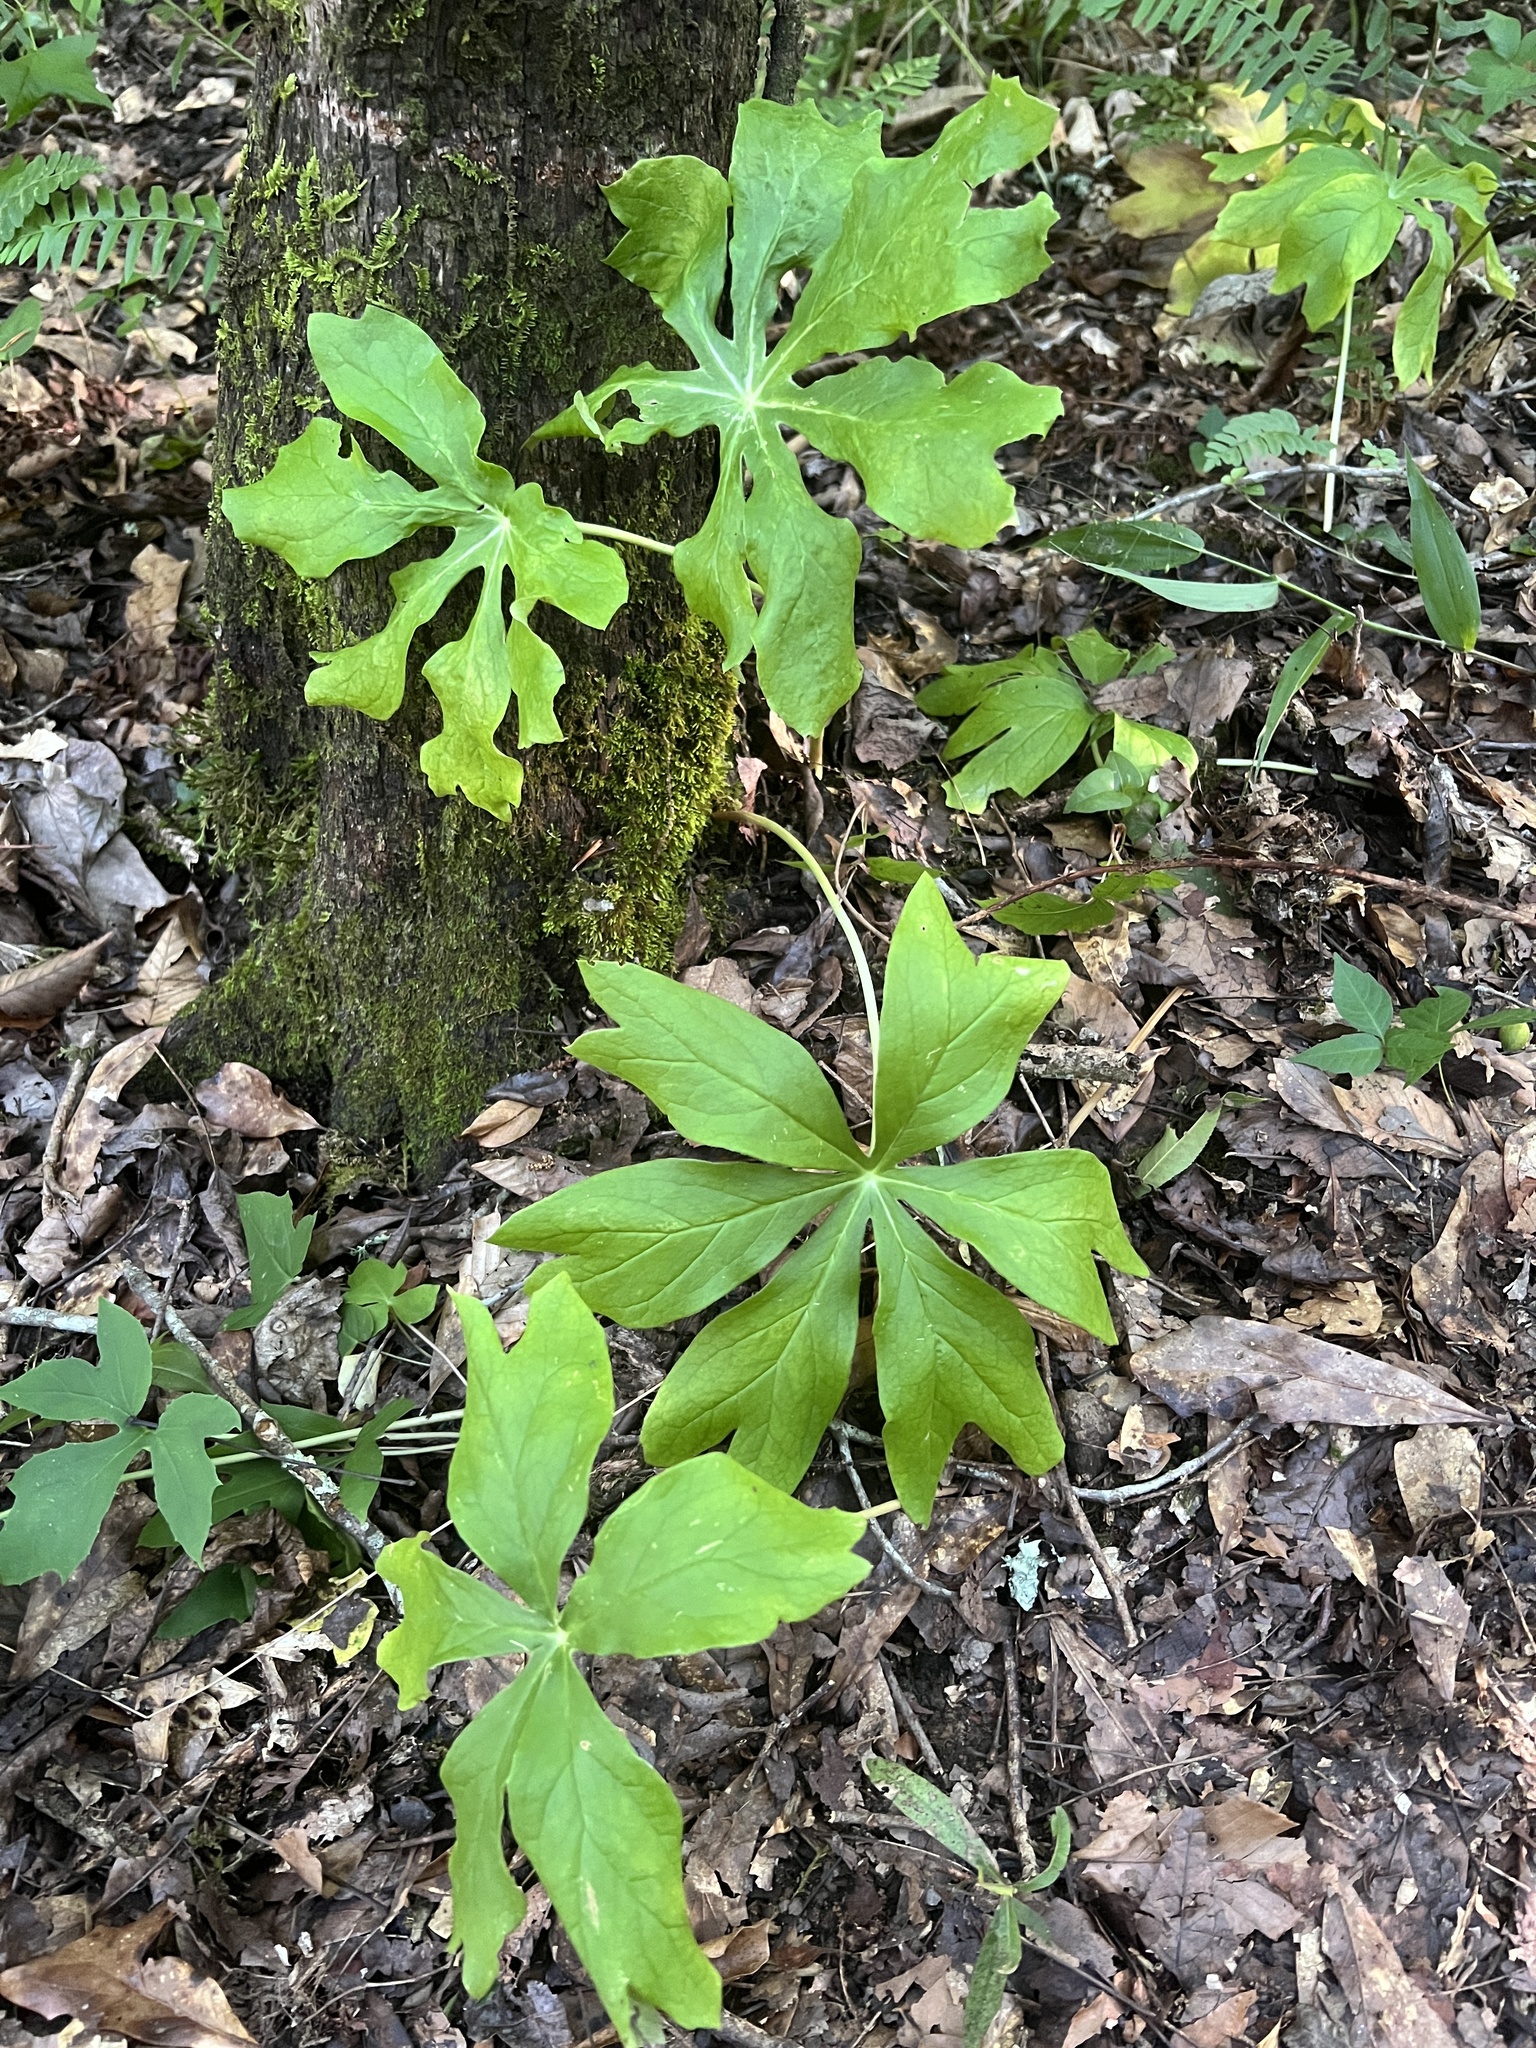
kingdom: Plantae
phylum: Tracheophyta
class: Magnoliopsida
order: Ranunculales
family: Berberidaceae
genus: Podophyllum
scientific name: Podophyllum peltatum
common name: Wild mandrake
